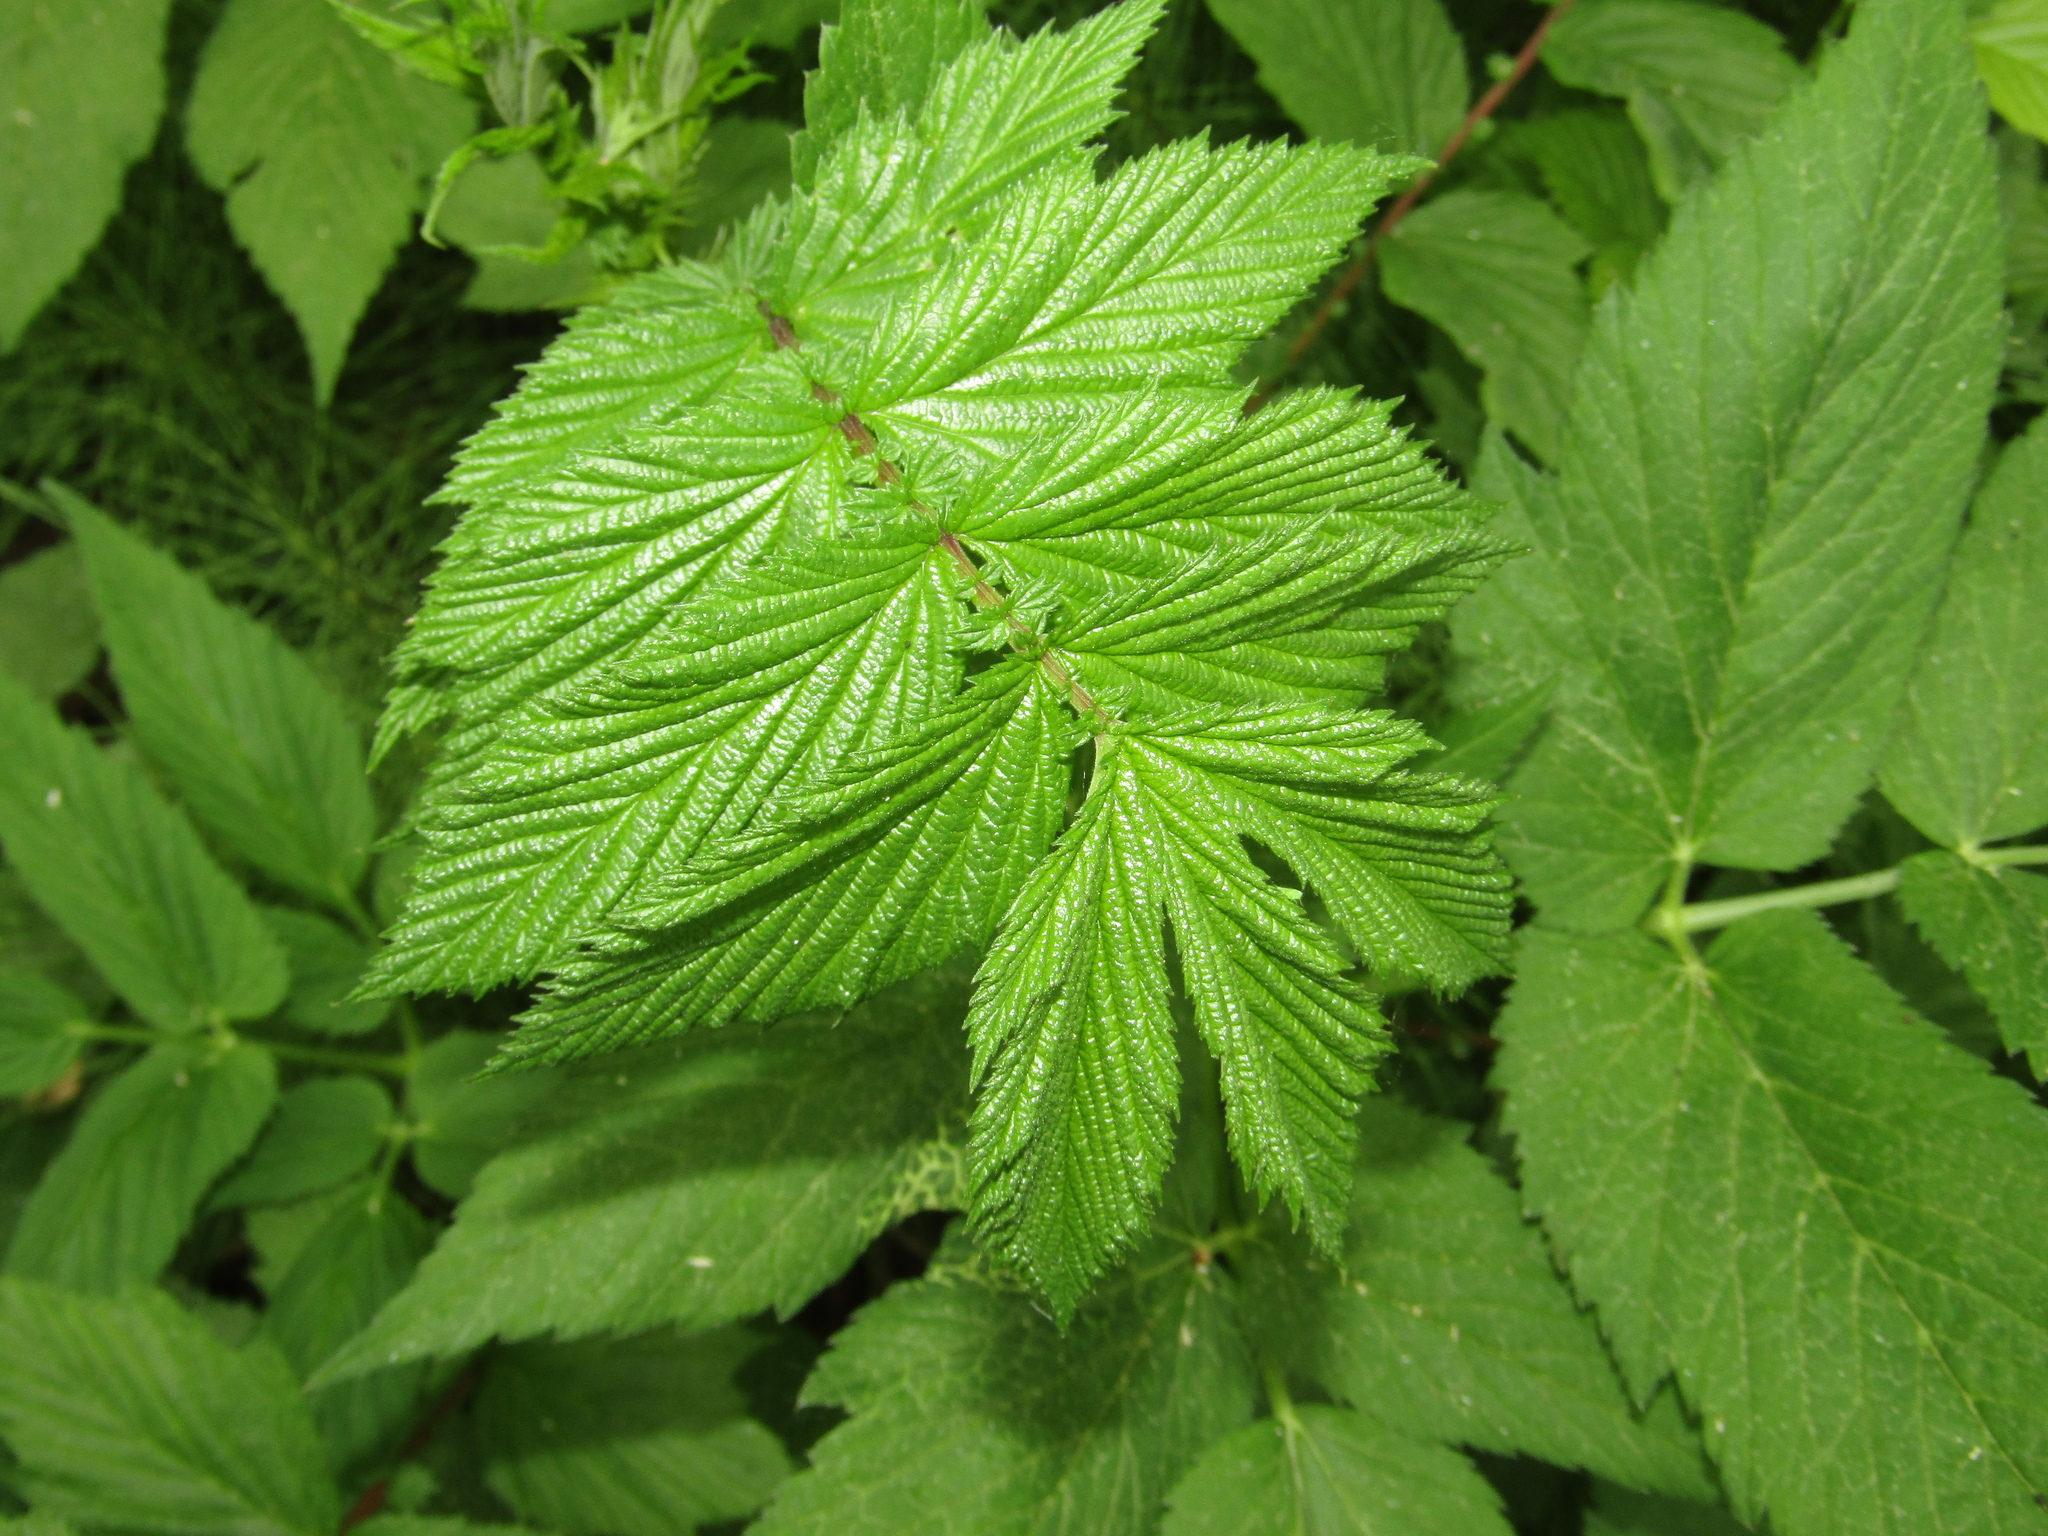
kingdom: Plantae
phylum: Tracheophyta
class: Magnoliopsida
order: Rosales
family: Rosaceae
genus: Filipendula
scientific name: Filipendula ulmaria
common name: Meadowsweet
